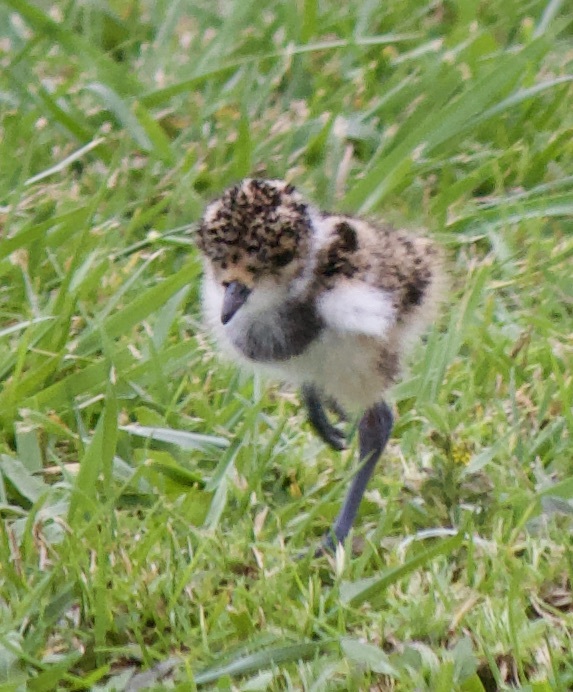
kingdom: Animalia
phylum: Chordata
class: Aves
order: Charadriiformes
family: Charadriidae
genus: Vanellus
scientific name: Vanellus chilensis
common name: Southern lapwing
